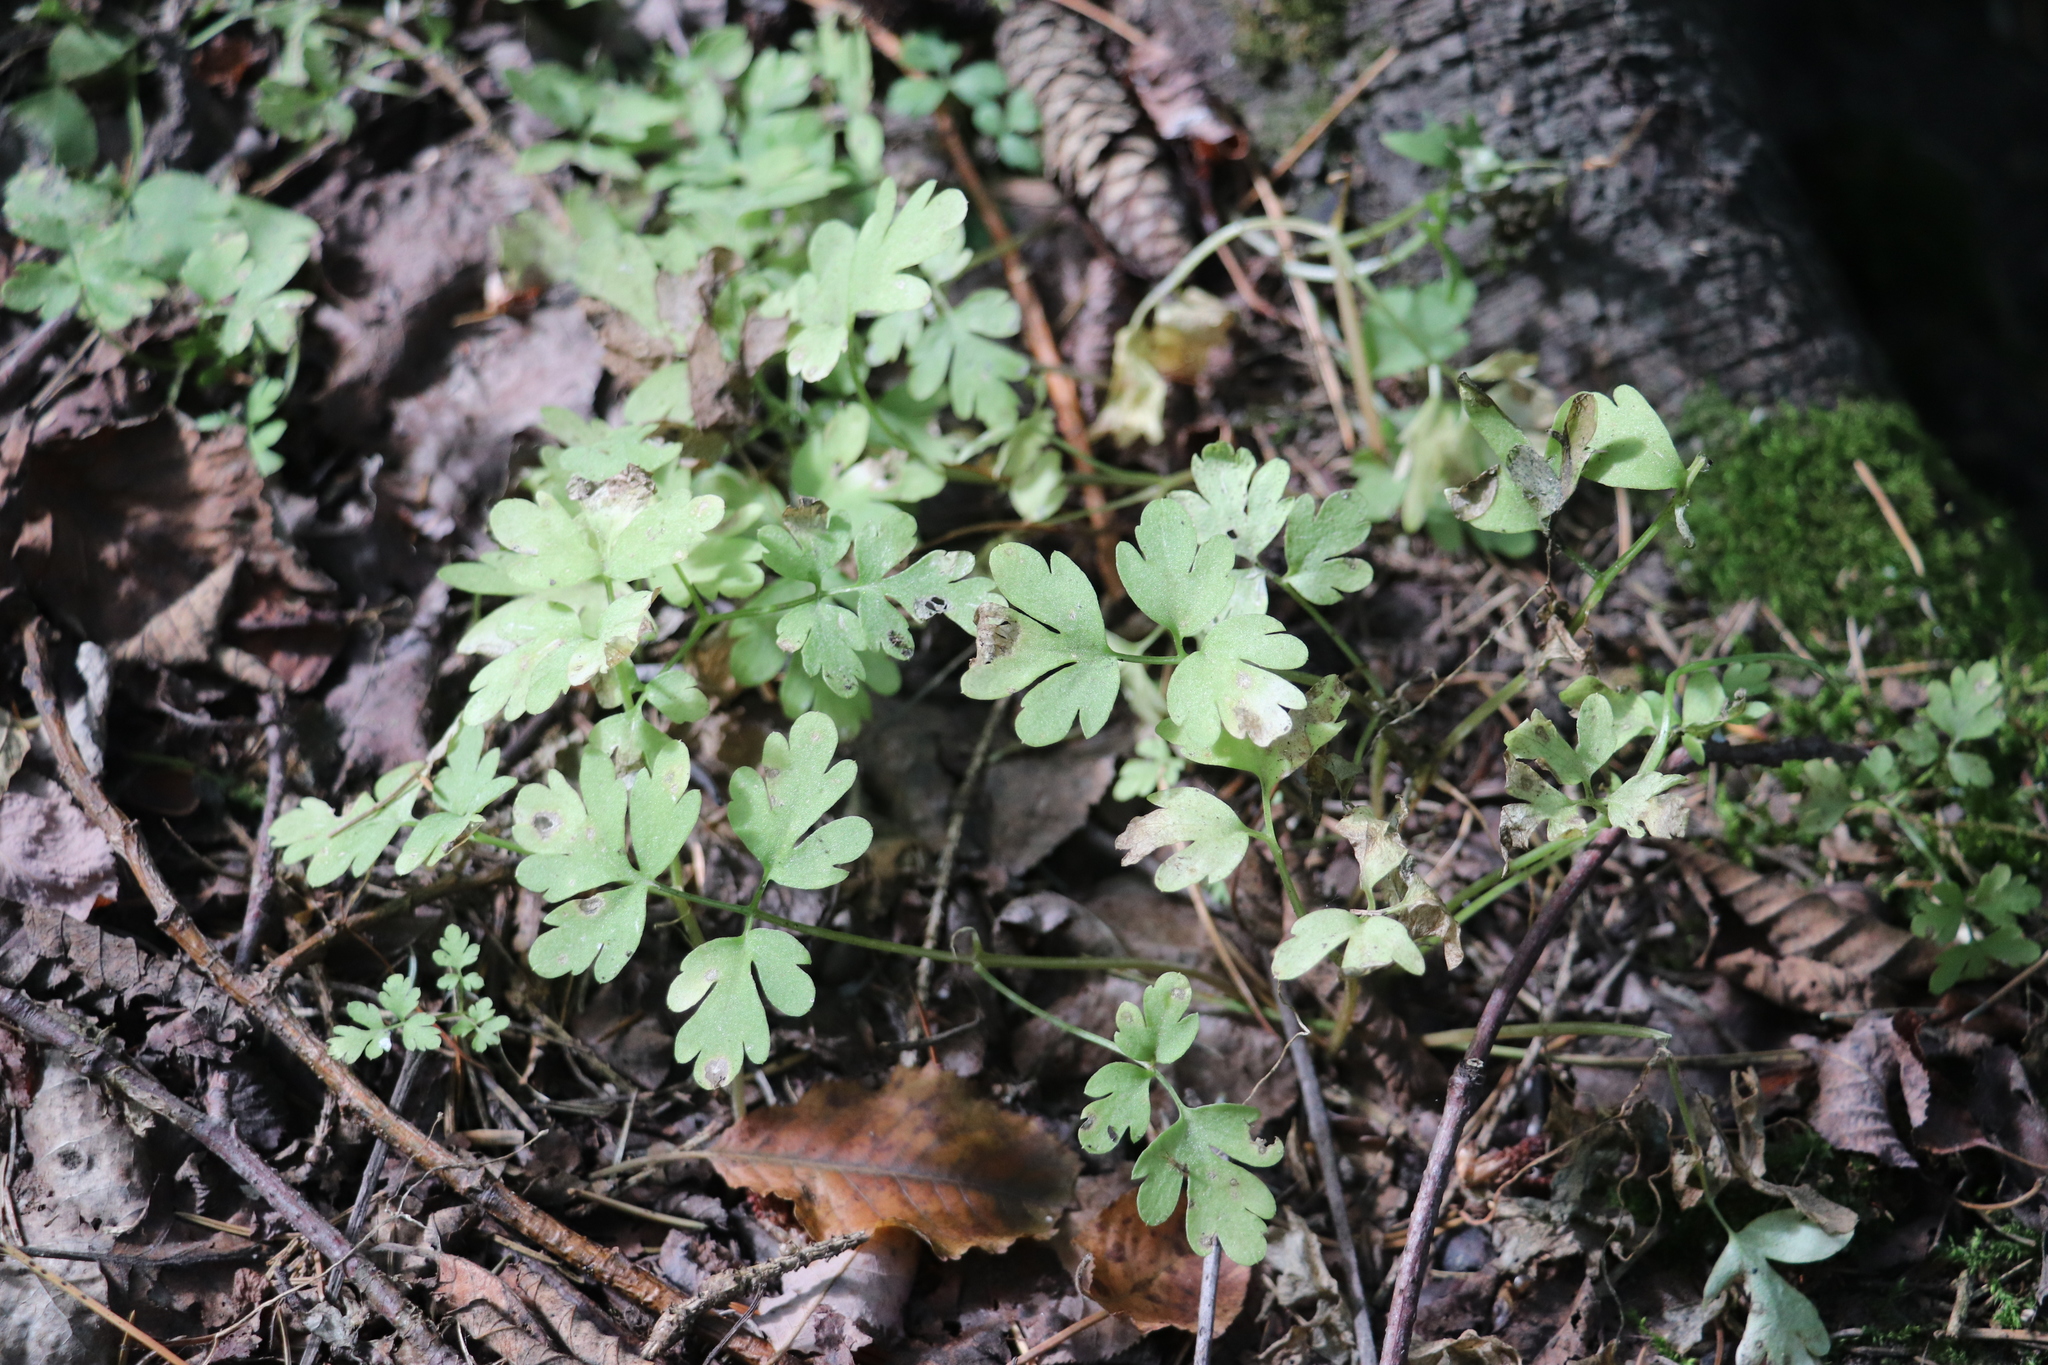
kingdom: Plantae
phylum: Tracheophyta
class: Magnoliopsida
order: Dipsacales
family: Viburnaceae
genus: Adoxa
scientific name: Adoxa moschatellina
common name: Moschatel
